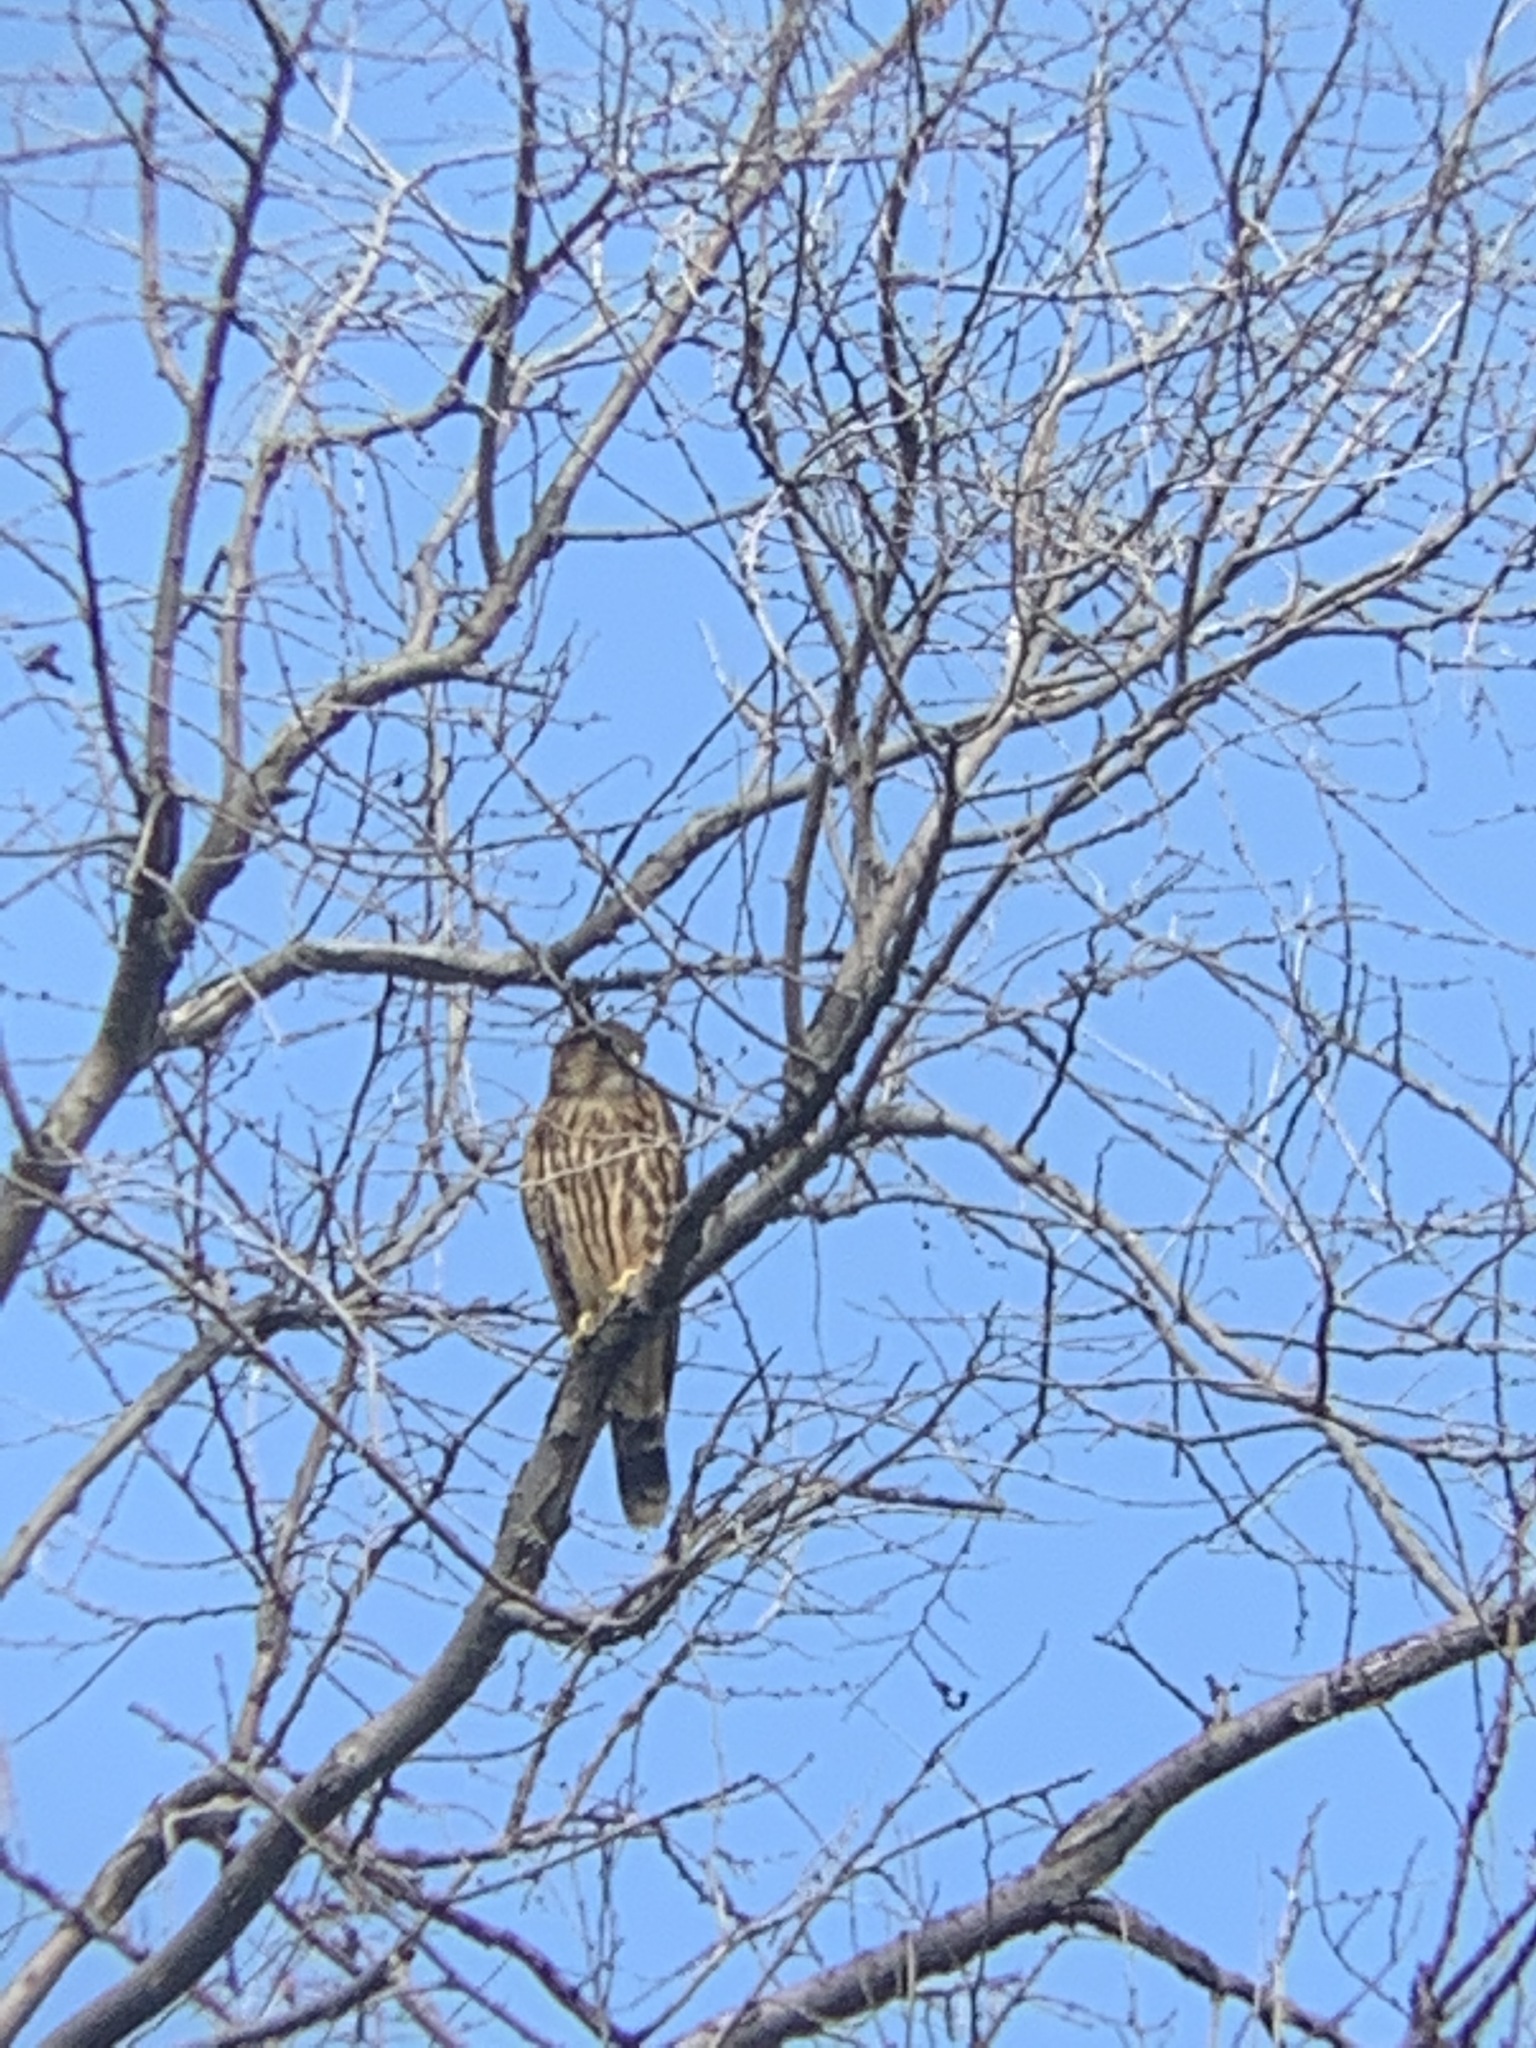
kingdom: Animalia
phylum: Chordata
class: Aves
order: Falconiformes
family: Falconidae
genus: Falco
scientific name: Falco columbarius
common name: Merlin
